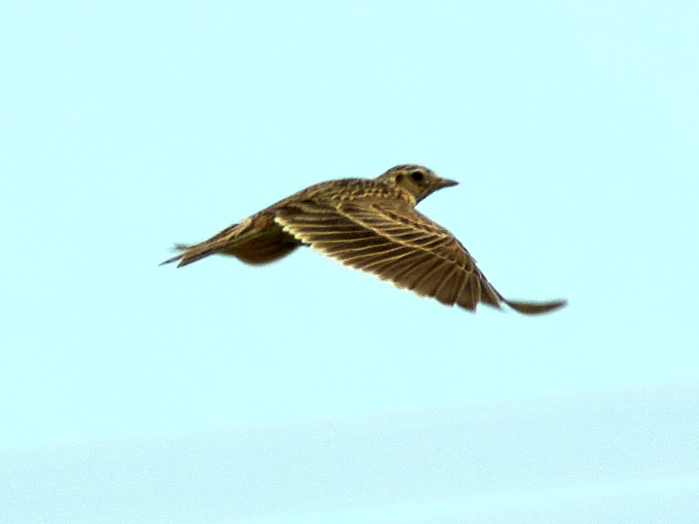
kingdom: Animalia
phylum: Chordata
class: Aves
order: Passeriformes
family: Alaudidae
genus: Alauda
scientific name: Alauda arvensis
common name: Eurasian skylark
